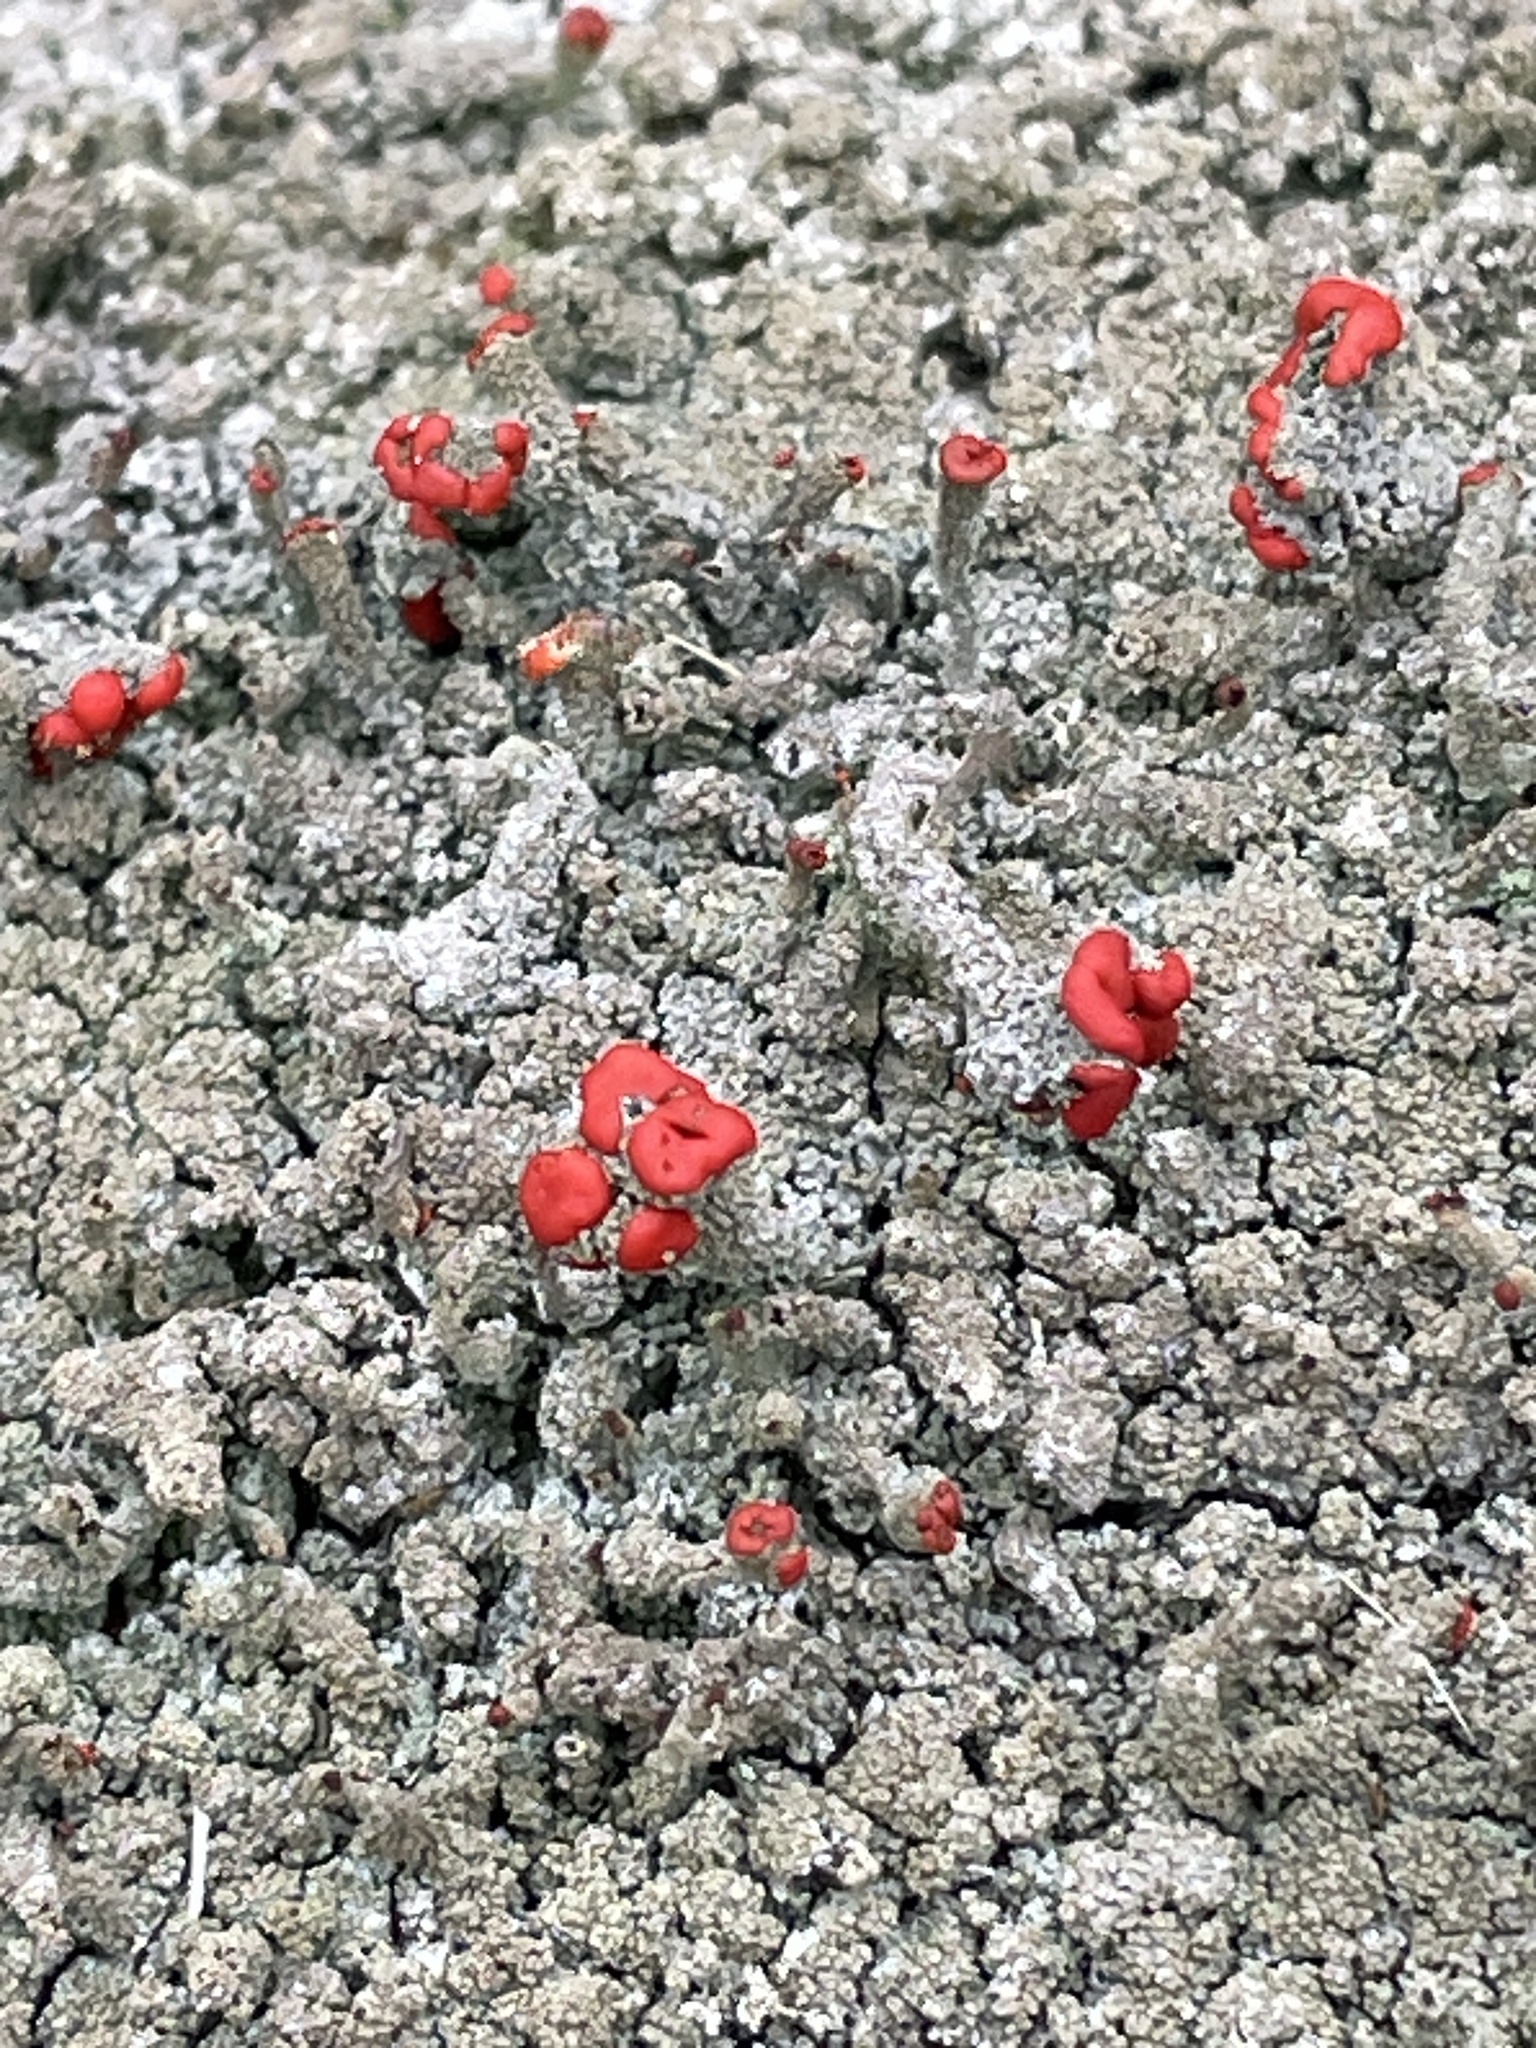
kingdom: Fungi
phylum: Ascomycota
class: Lecanoromycetes
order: Lecanorales
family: Cladoniaceae
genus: Cladonia
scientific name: Cladonia cristatella
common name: British soldier lichen
